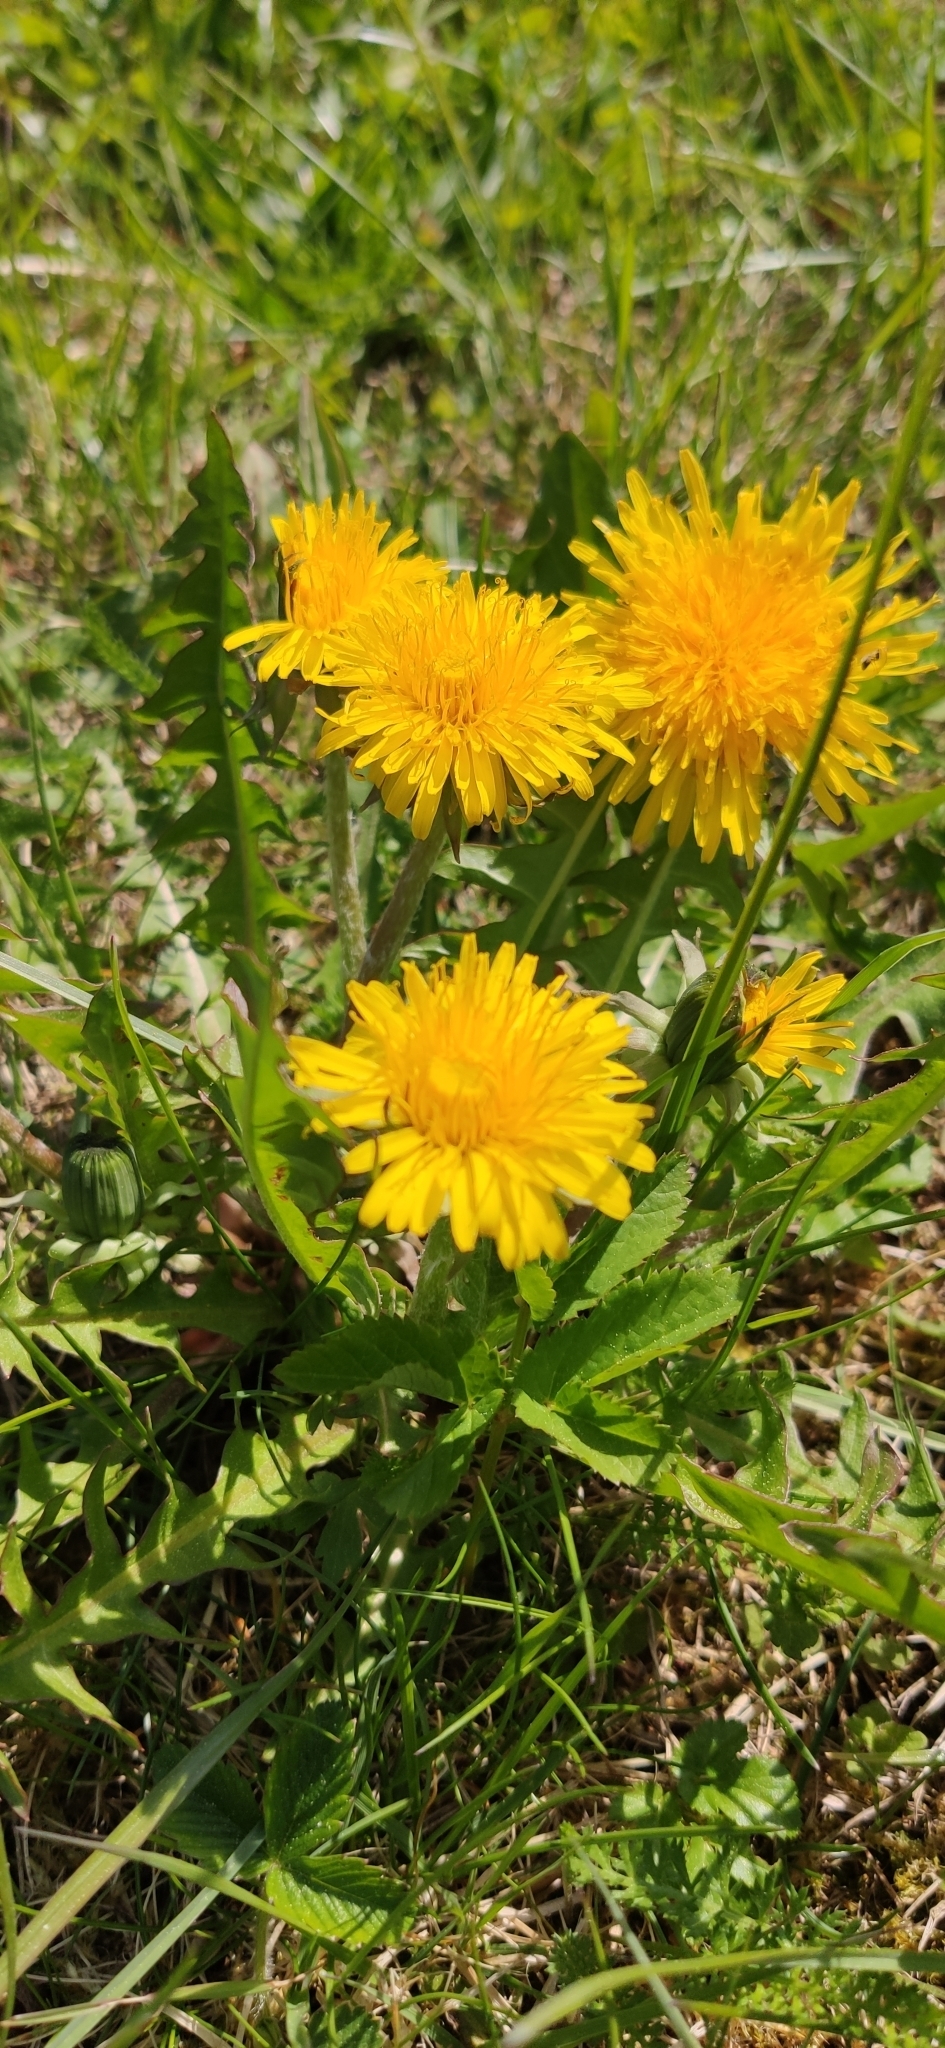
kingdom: Plantae
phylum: Tracheophyta
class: Magnoliopsida
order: Asterales
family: Asteraceae
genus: Taraxacum
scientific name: Taraxacum officinale
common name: Common dandelion
